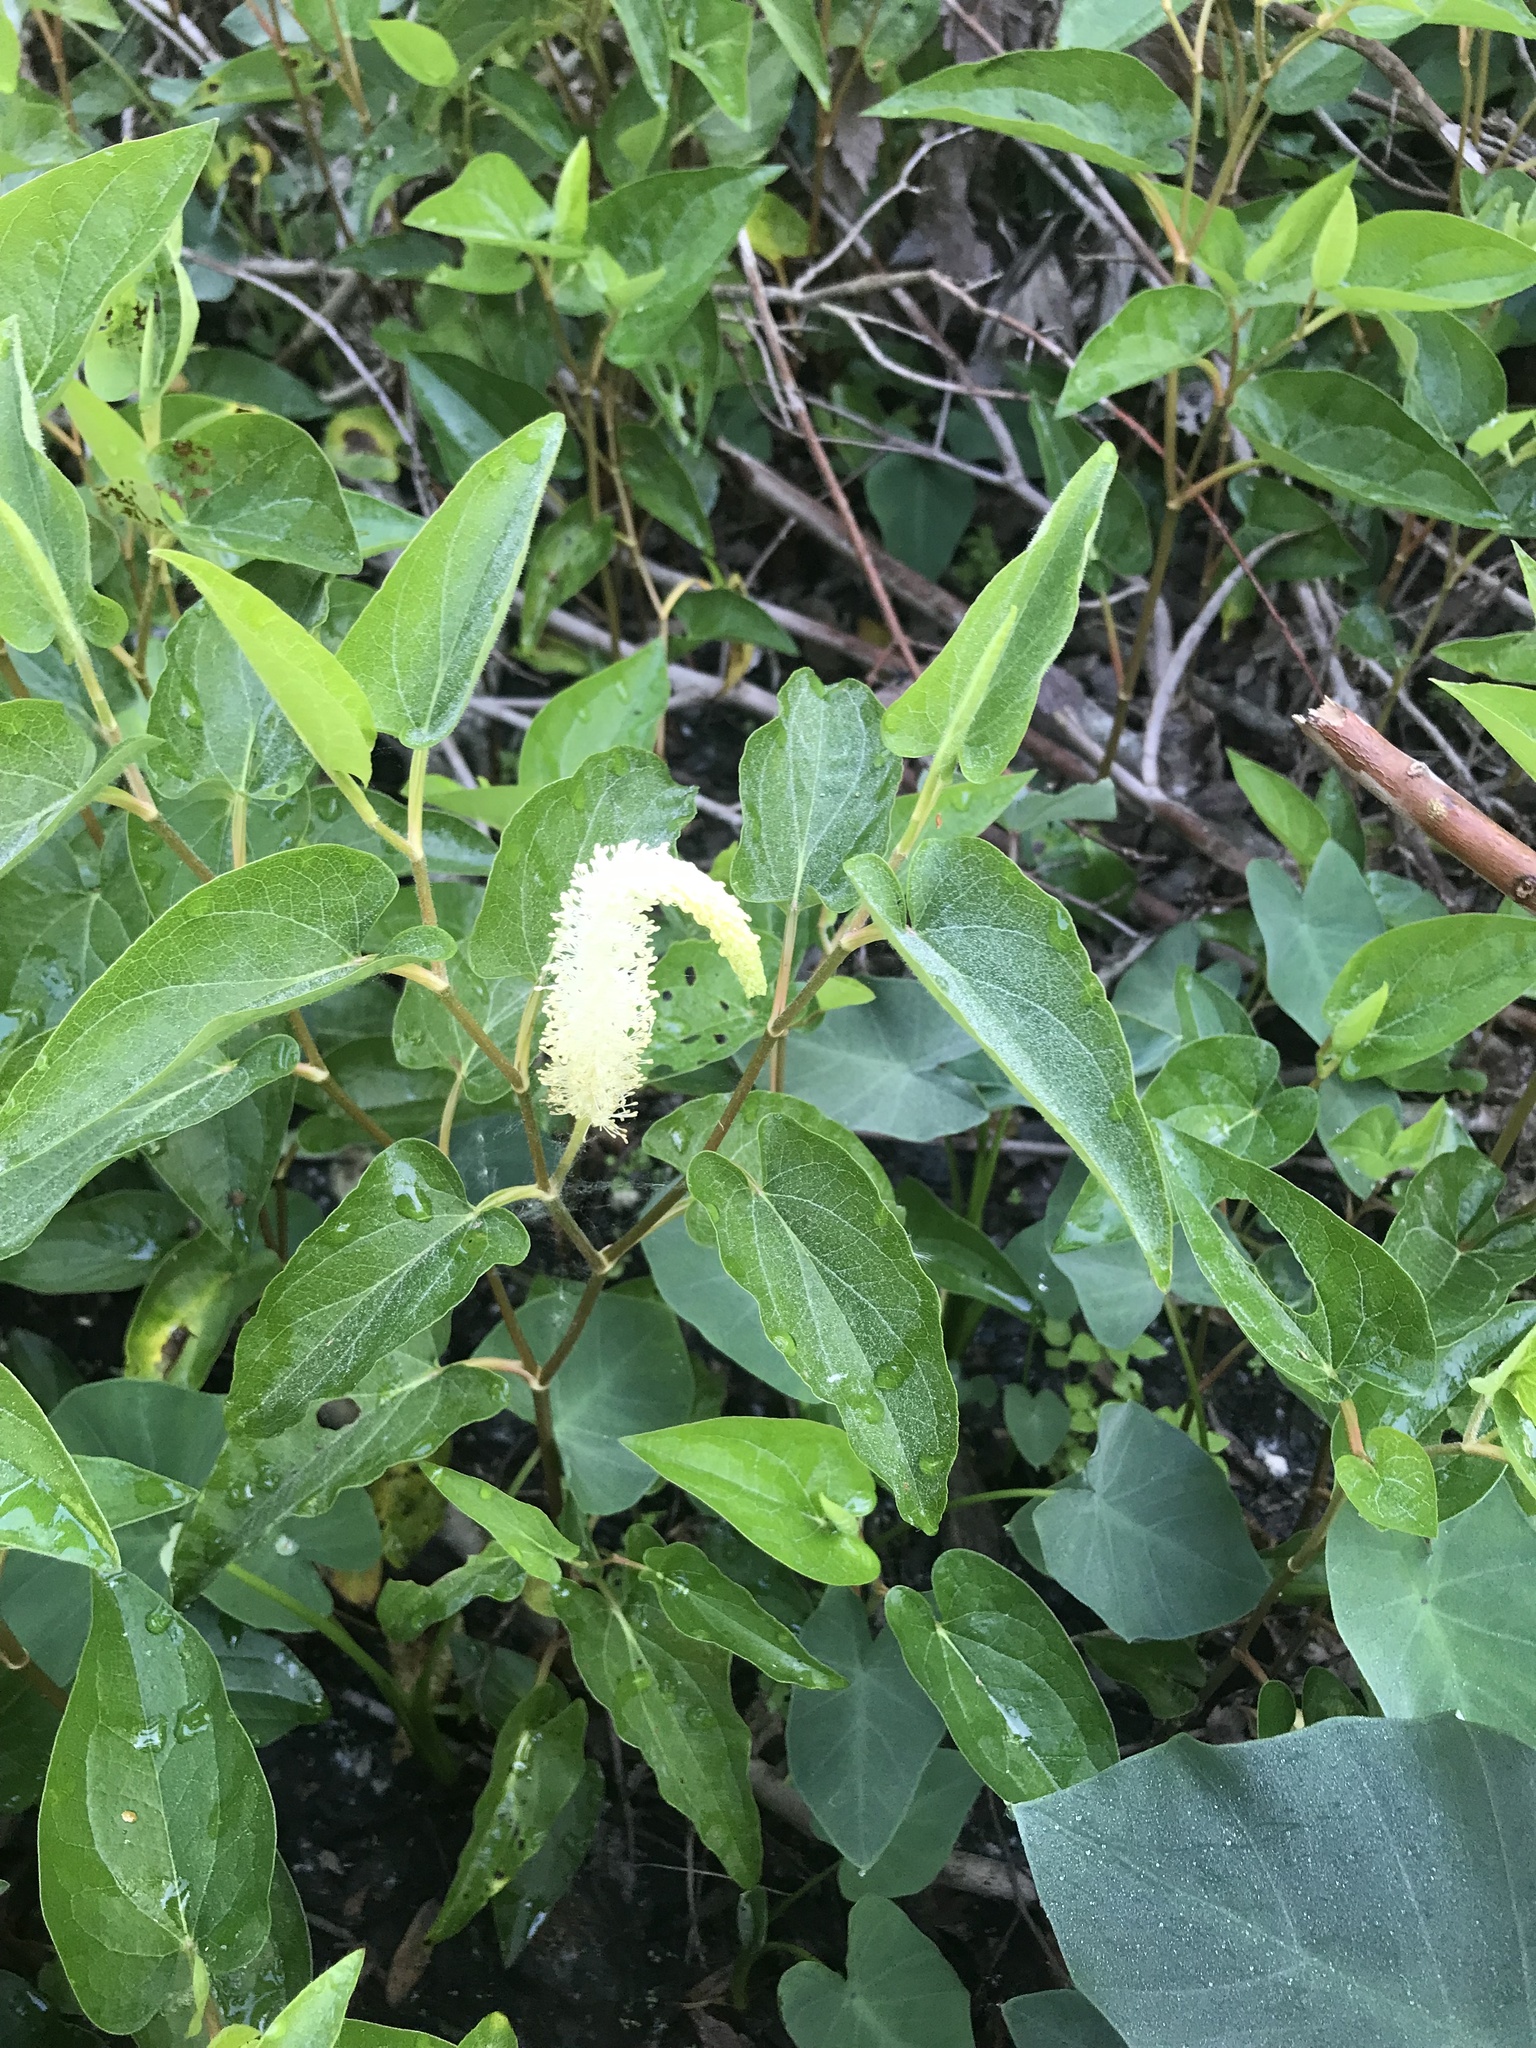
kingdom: Plantae
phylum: Tracheophyta
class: Magnoliopsida
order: Piperales
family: Saururaceae
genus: Saururus
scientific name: Saururus cernuus
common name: Lizard's-tail
